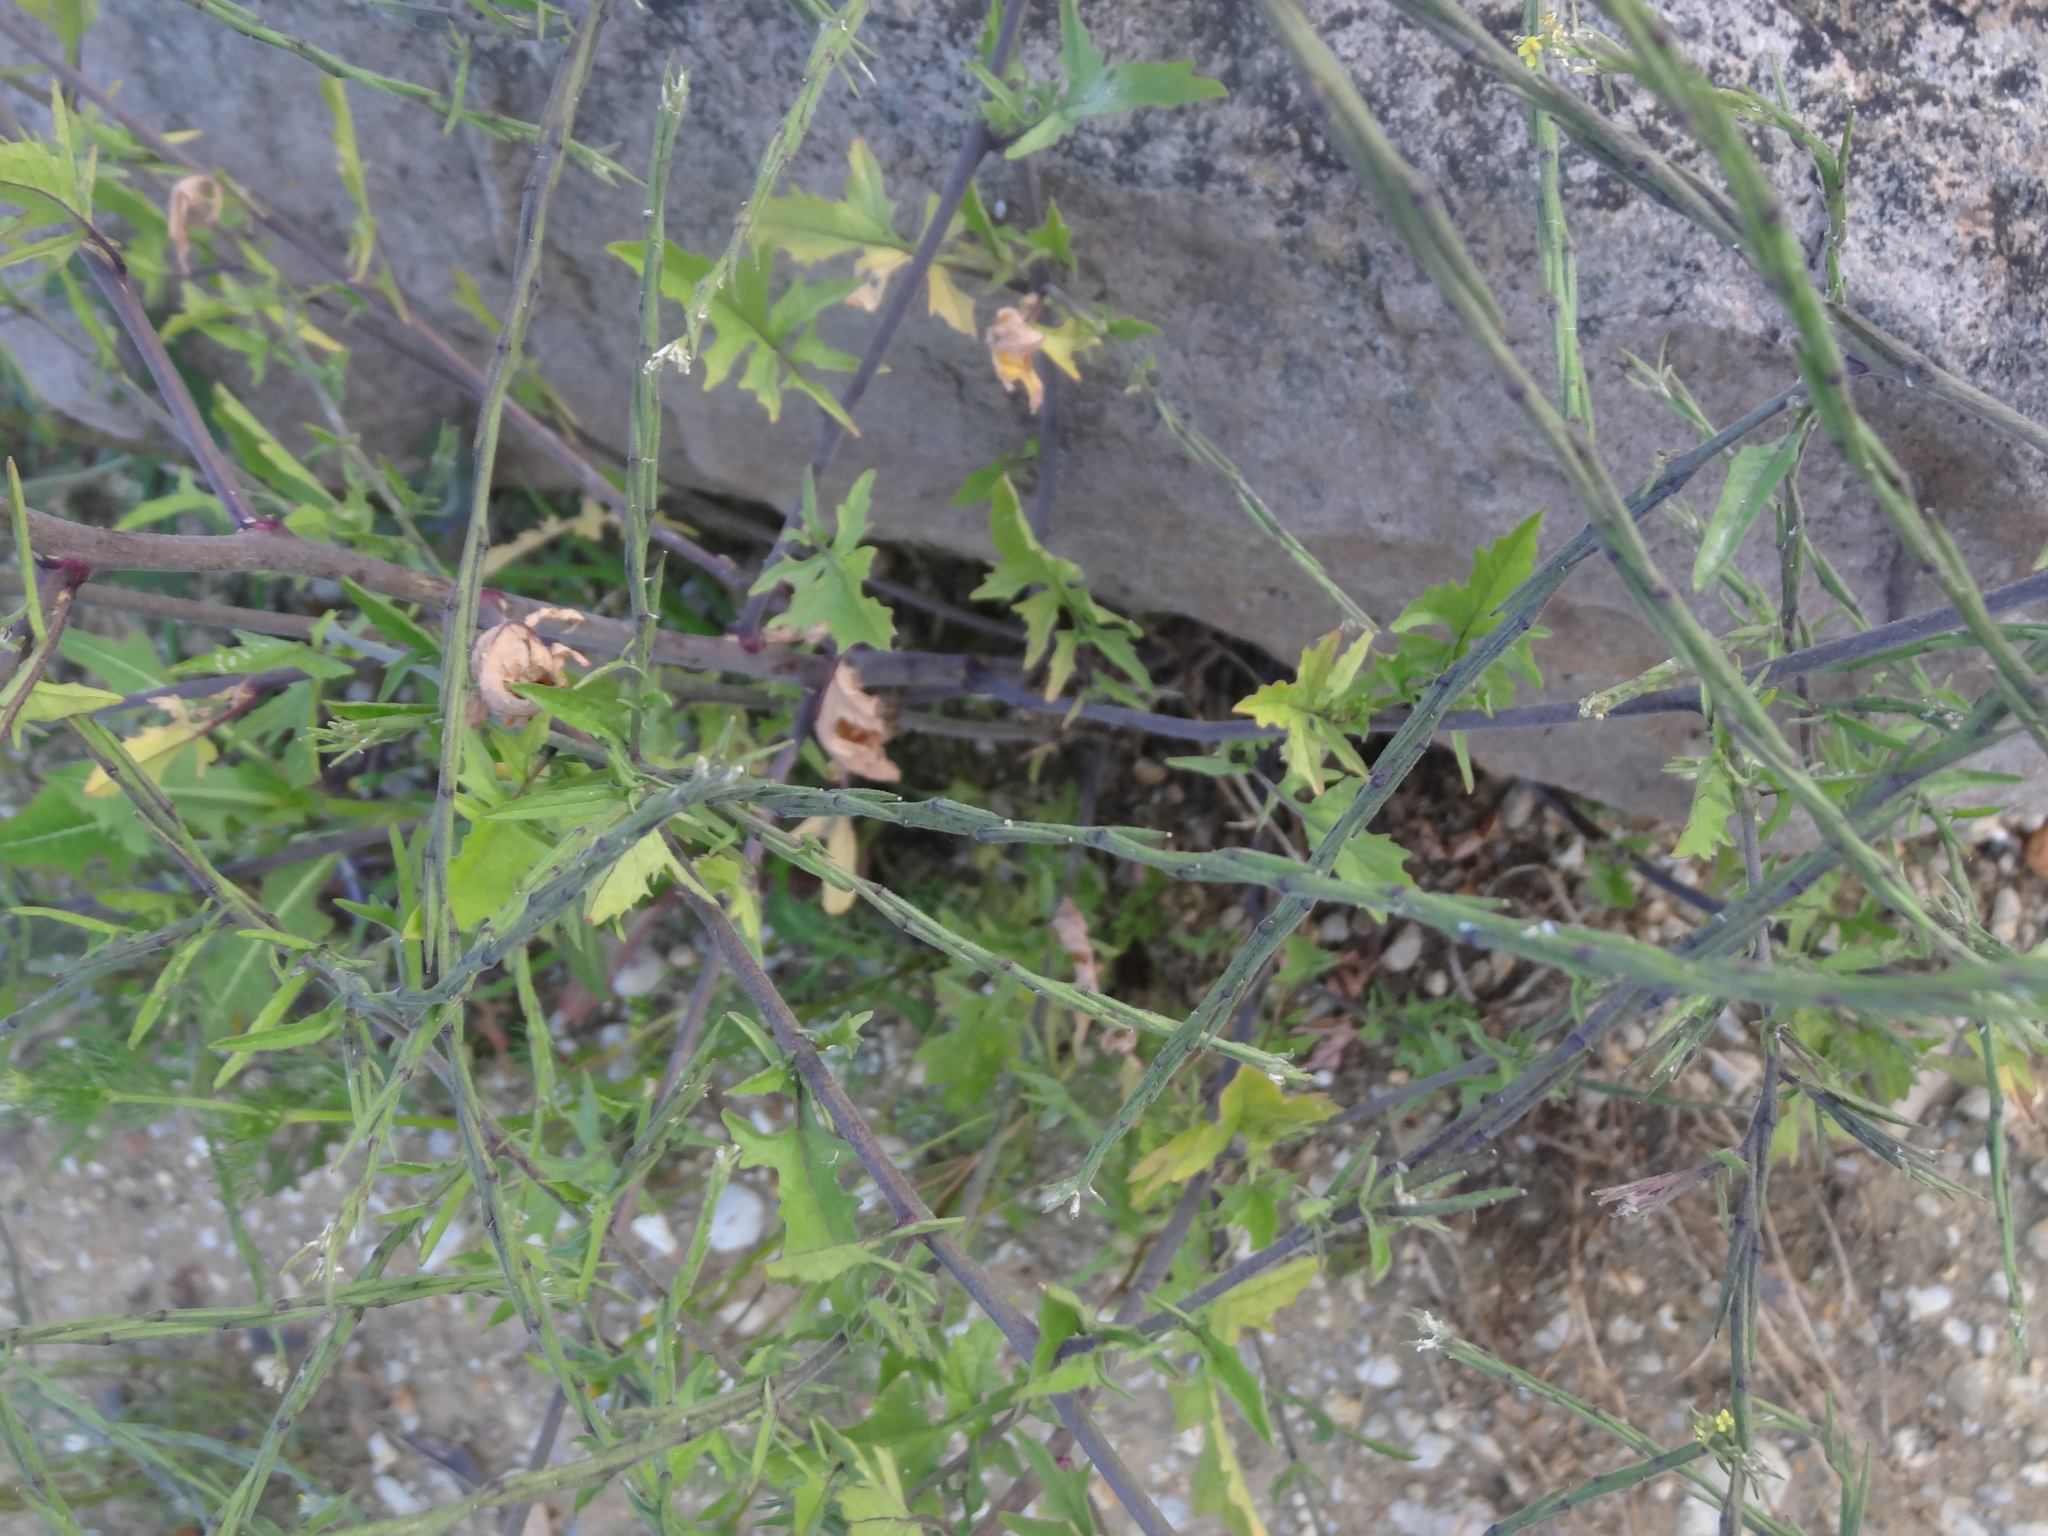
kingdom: Plantae
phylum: Tracheophyta
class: Magnoliopsida
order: Brassicales
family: Brassicaceae
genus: Sisymbrium
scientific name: Sisymbrium officinale
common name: Hedge mustard
